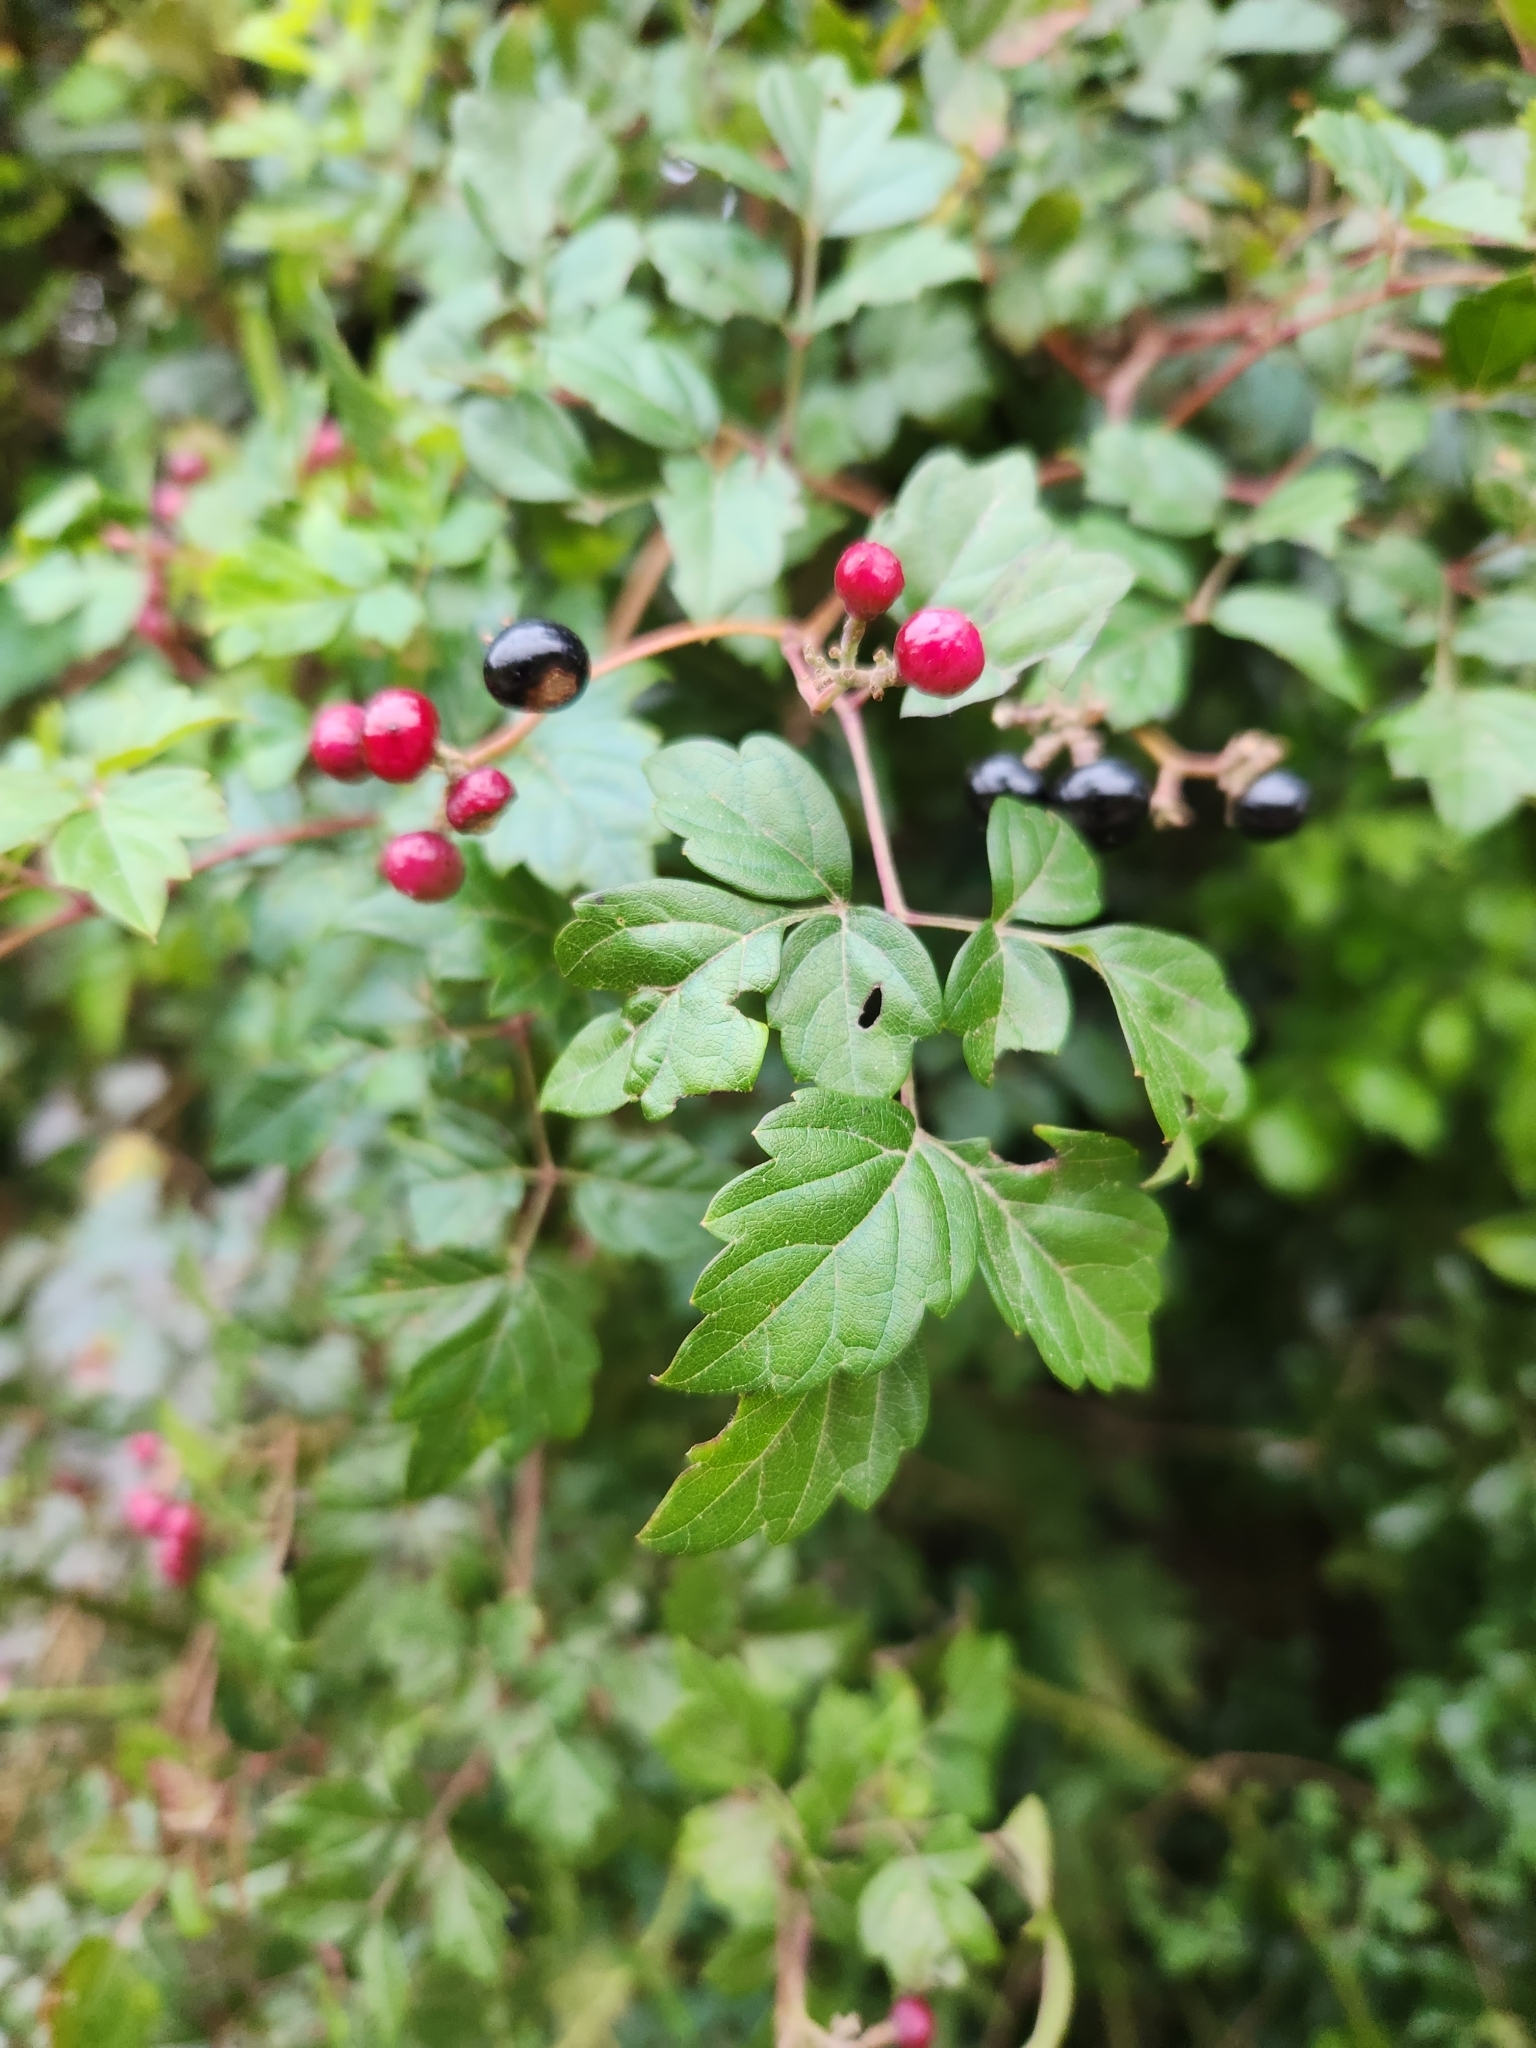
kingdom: Plantae
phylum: Tracheophyta
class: Magnoliopsida
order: Vitales
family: Vitaceae
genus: Nekemias
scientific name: Nekemias arborea
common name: Peppervine
